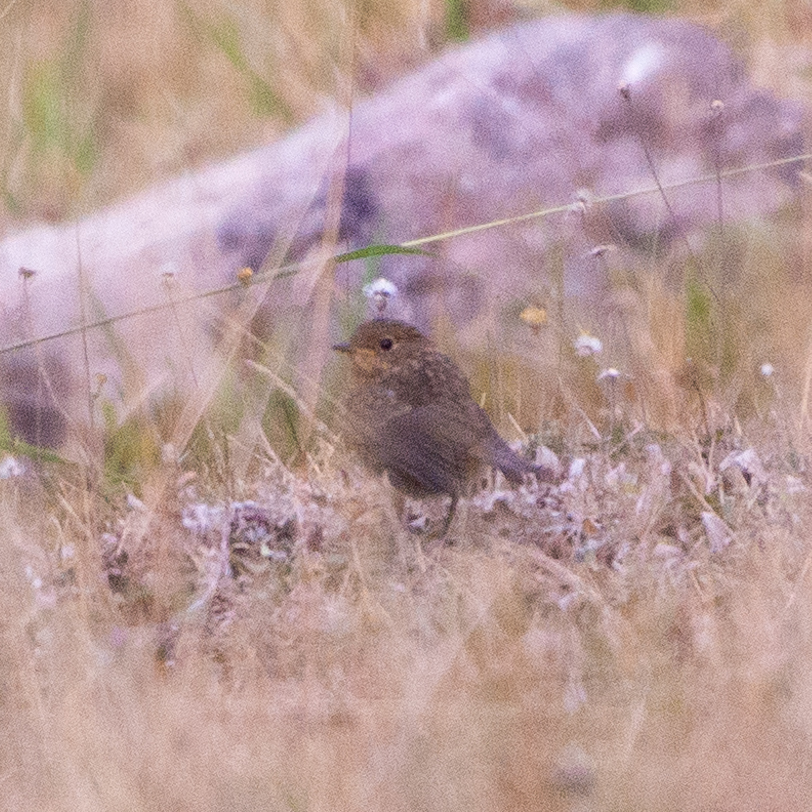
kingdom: Animalia
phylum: Chordata
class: Aves
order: Passeriformes
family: Muscicapidae
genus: Erithacus
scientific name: Erithacus rubecula
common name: European robin
